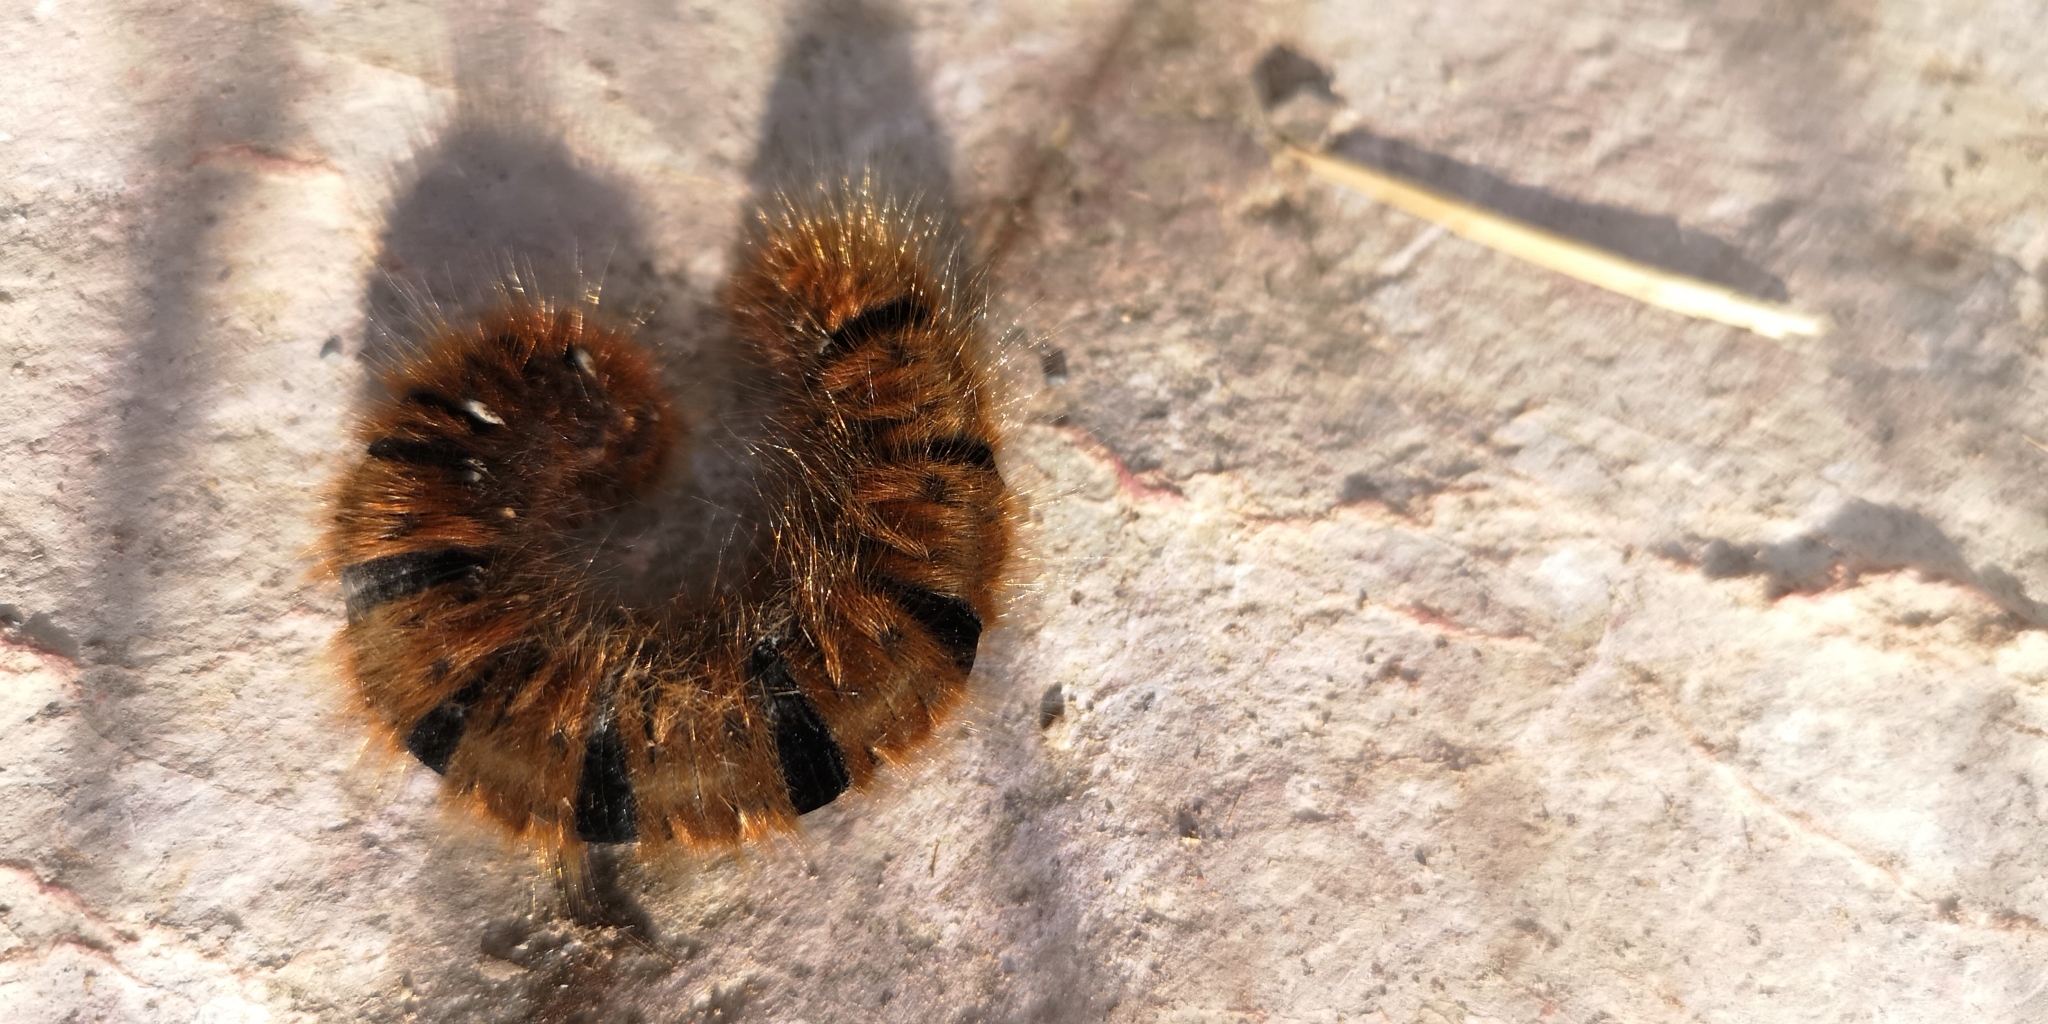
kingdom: Animalia
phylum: Arthropoda
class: Insecta
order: Lepidoptera
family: Lasiocampidae
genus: Lasiocampa
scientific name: Lasiocampa quercus
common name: Oak eggar
